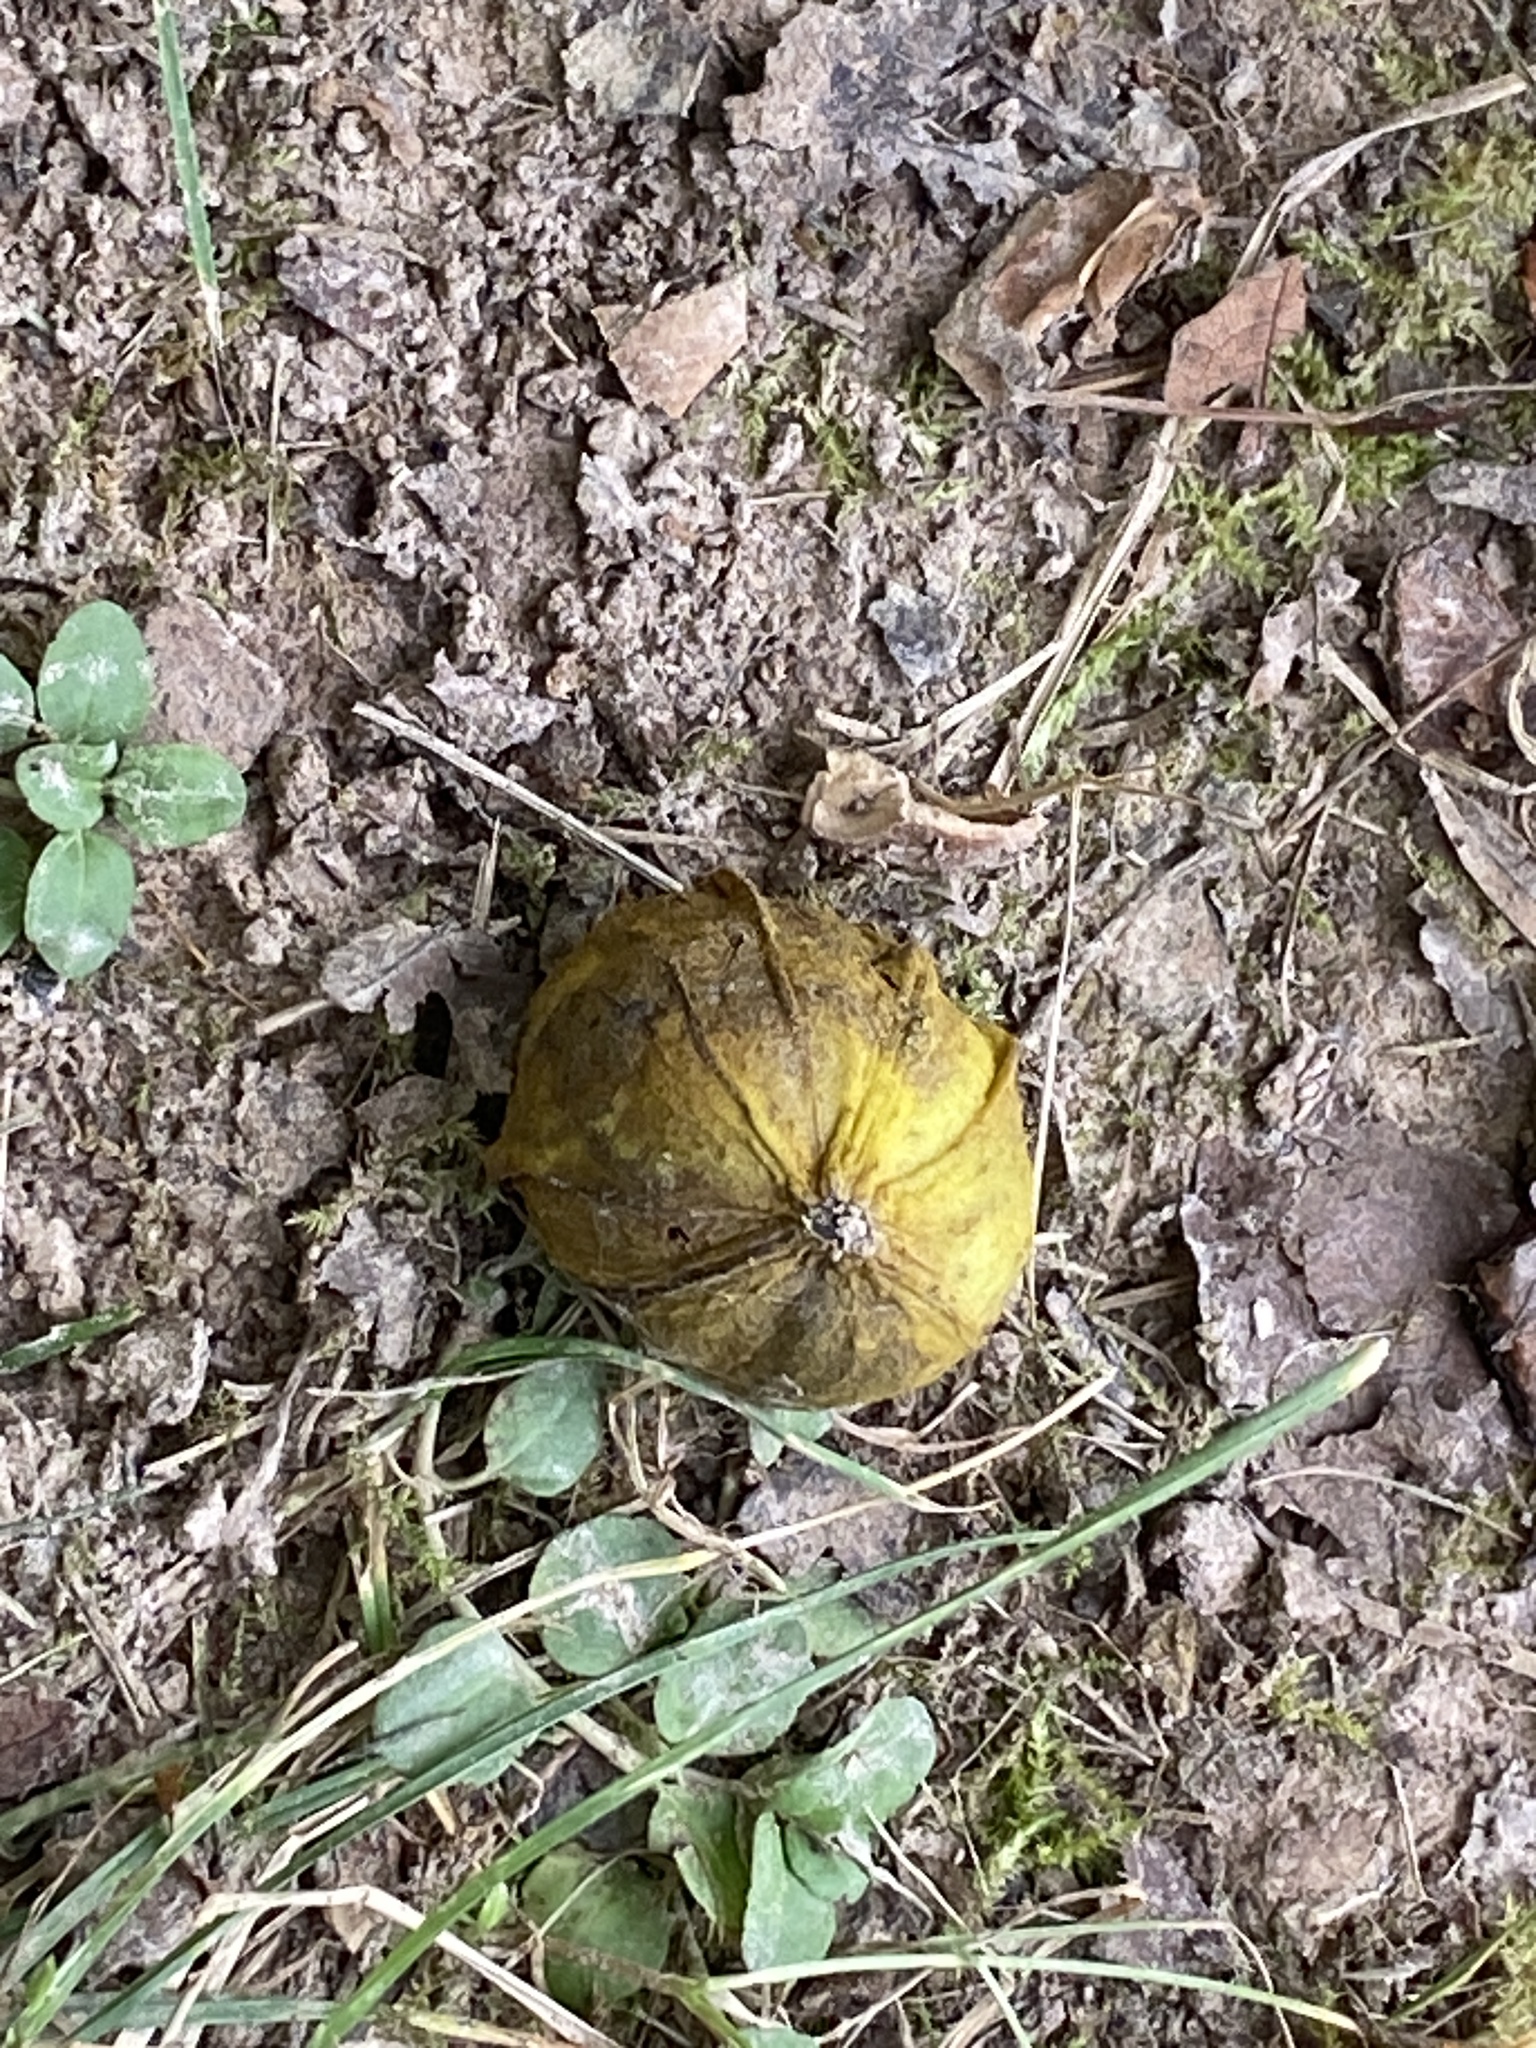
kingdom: Plantae
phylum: Tracheophyta
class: Magnoliopsida
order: Fagales
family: Juglandaceae
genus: Carya
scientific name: Carya cordiformis
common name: Bitternut hickory
